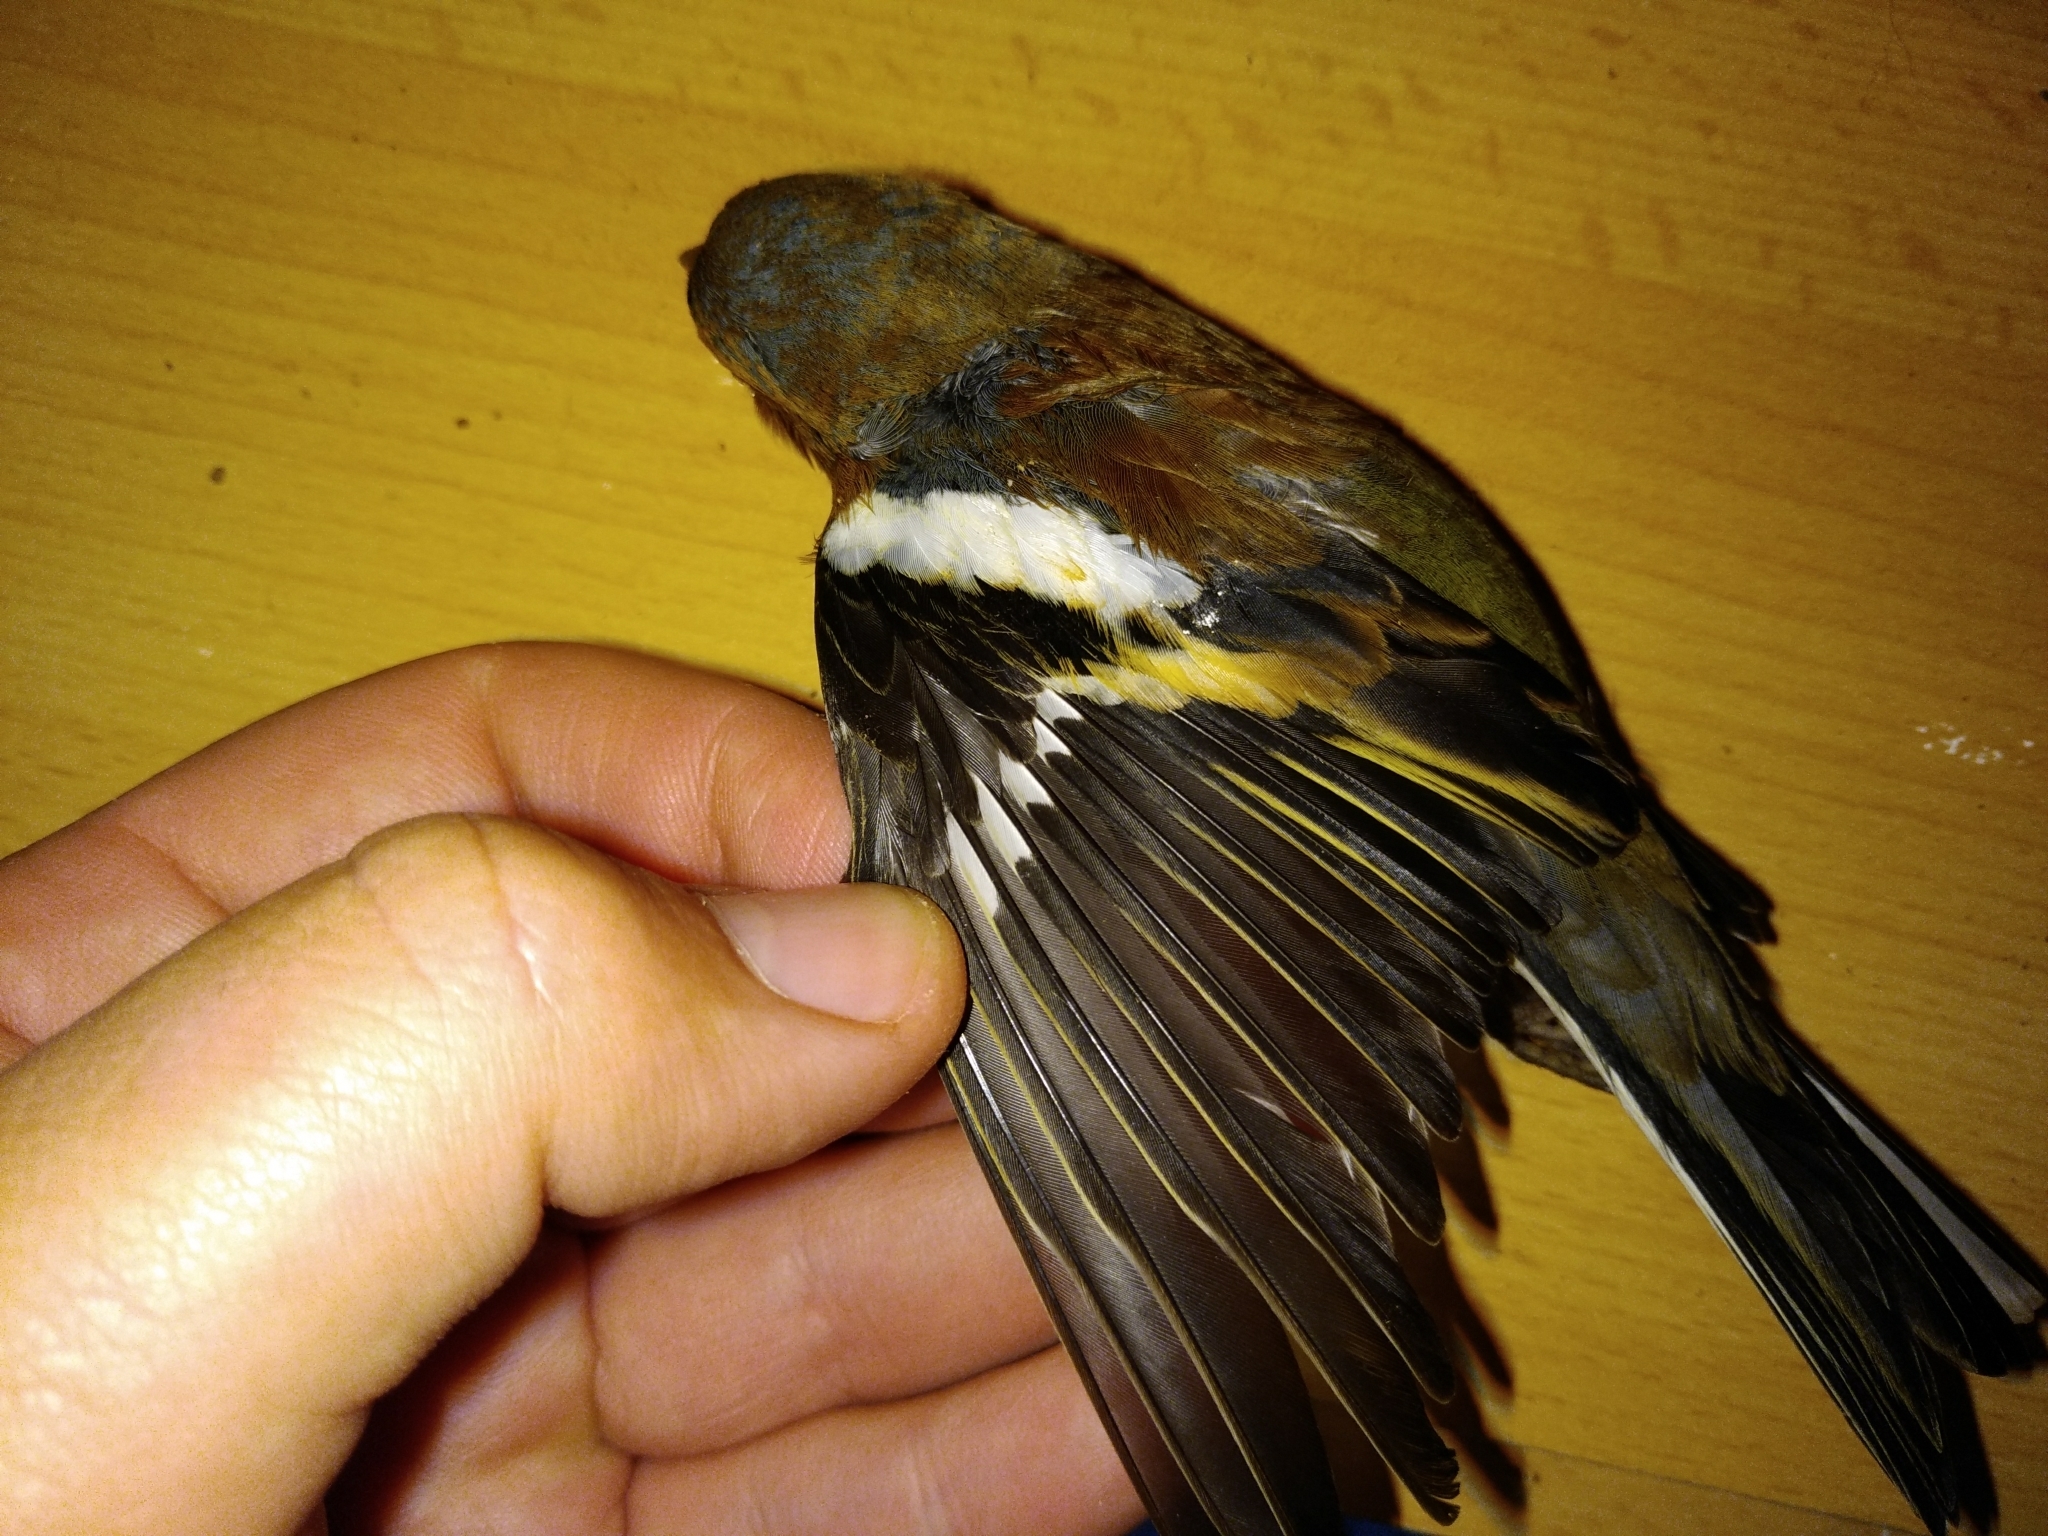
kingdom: Animalia
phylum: Chordata
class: Aves
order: Passeriformes
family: Fringillidae
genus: Fringilla
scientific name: Fringilla coelebs
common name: Common chaffinch
